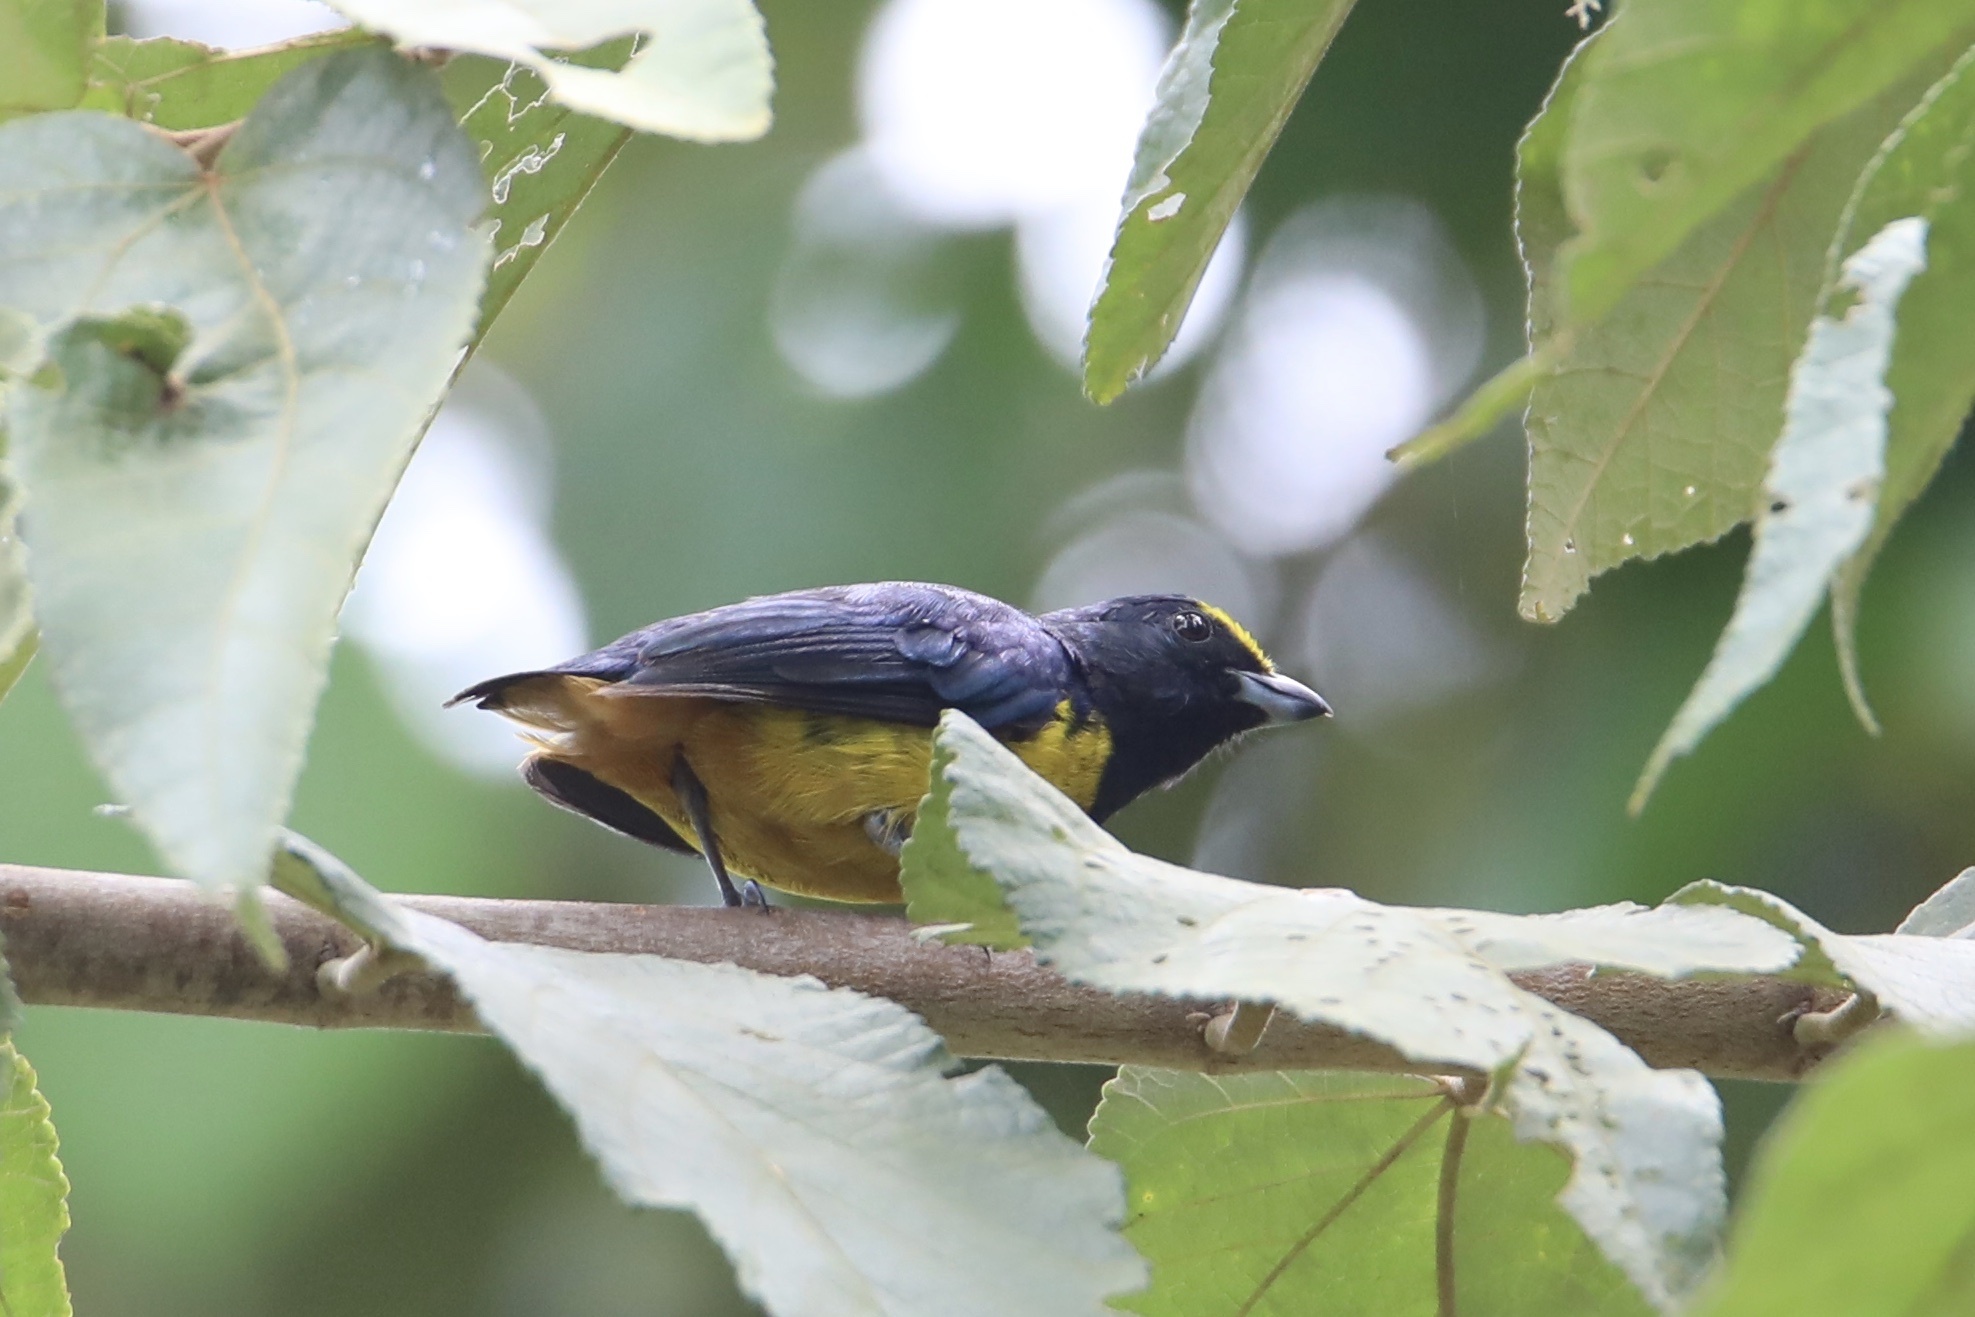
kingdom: Animalia
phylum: Chordata
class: Aves
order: Passeriformes
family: Fringillidae
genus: Euphonia
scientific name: Euphonia fulvicrissa
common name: Fulvous-vented euphonia
